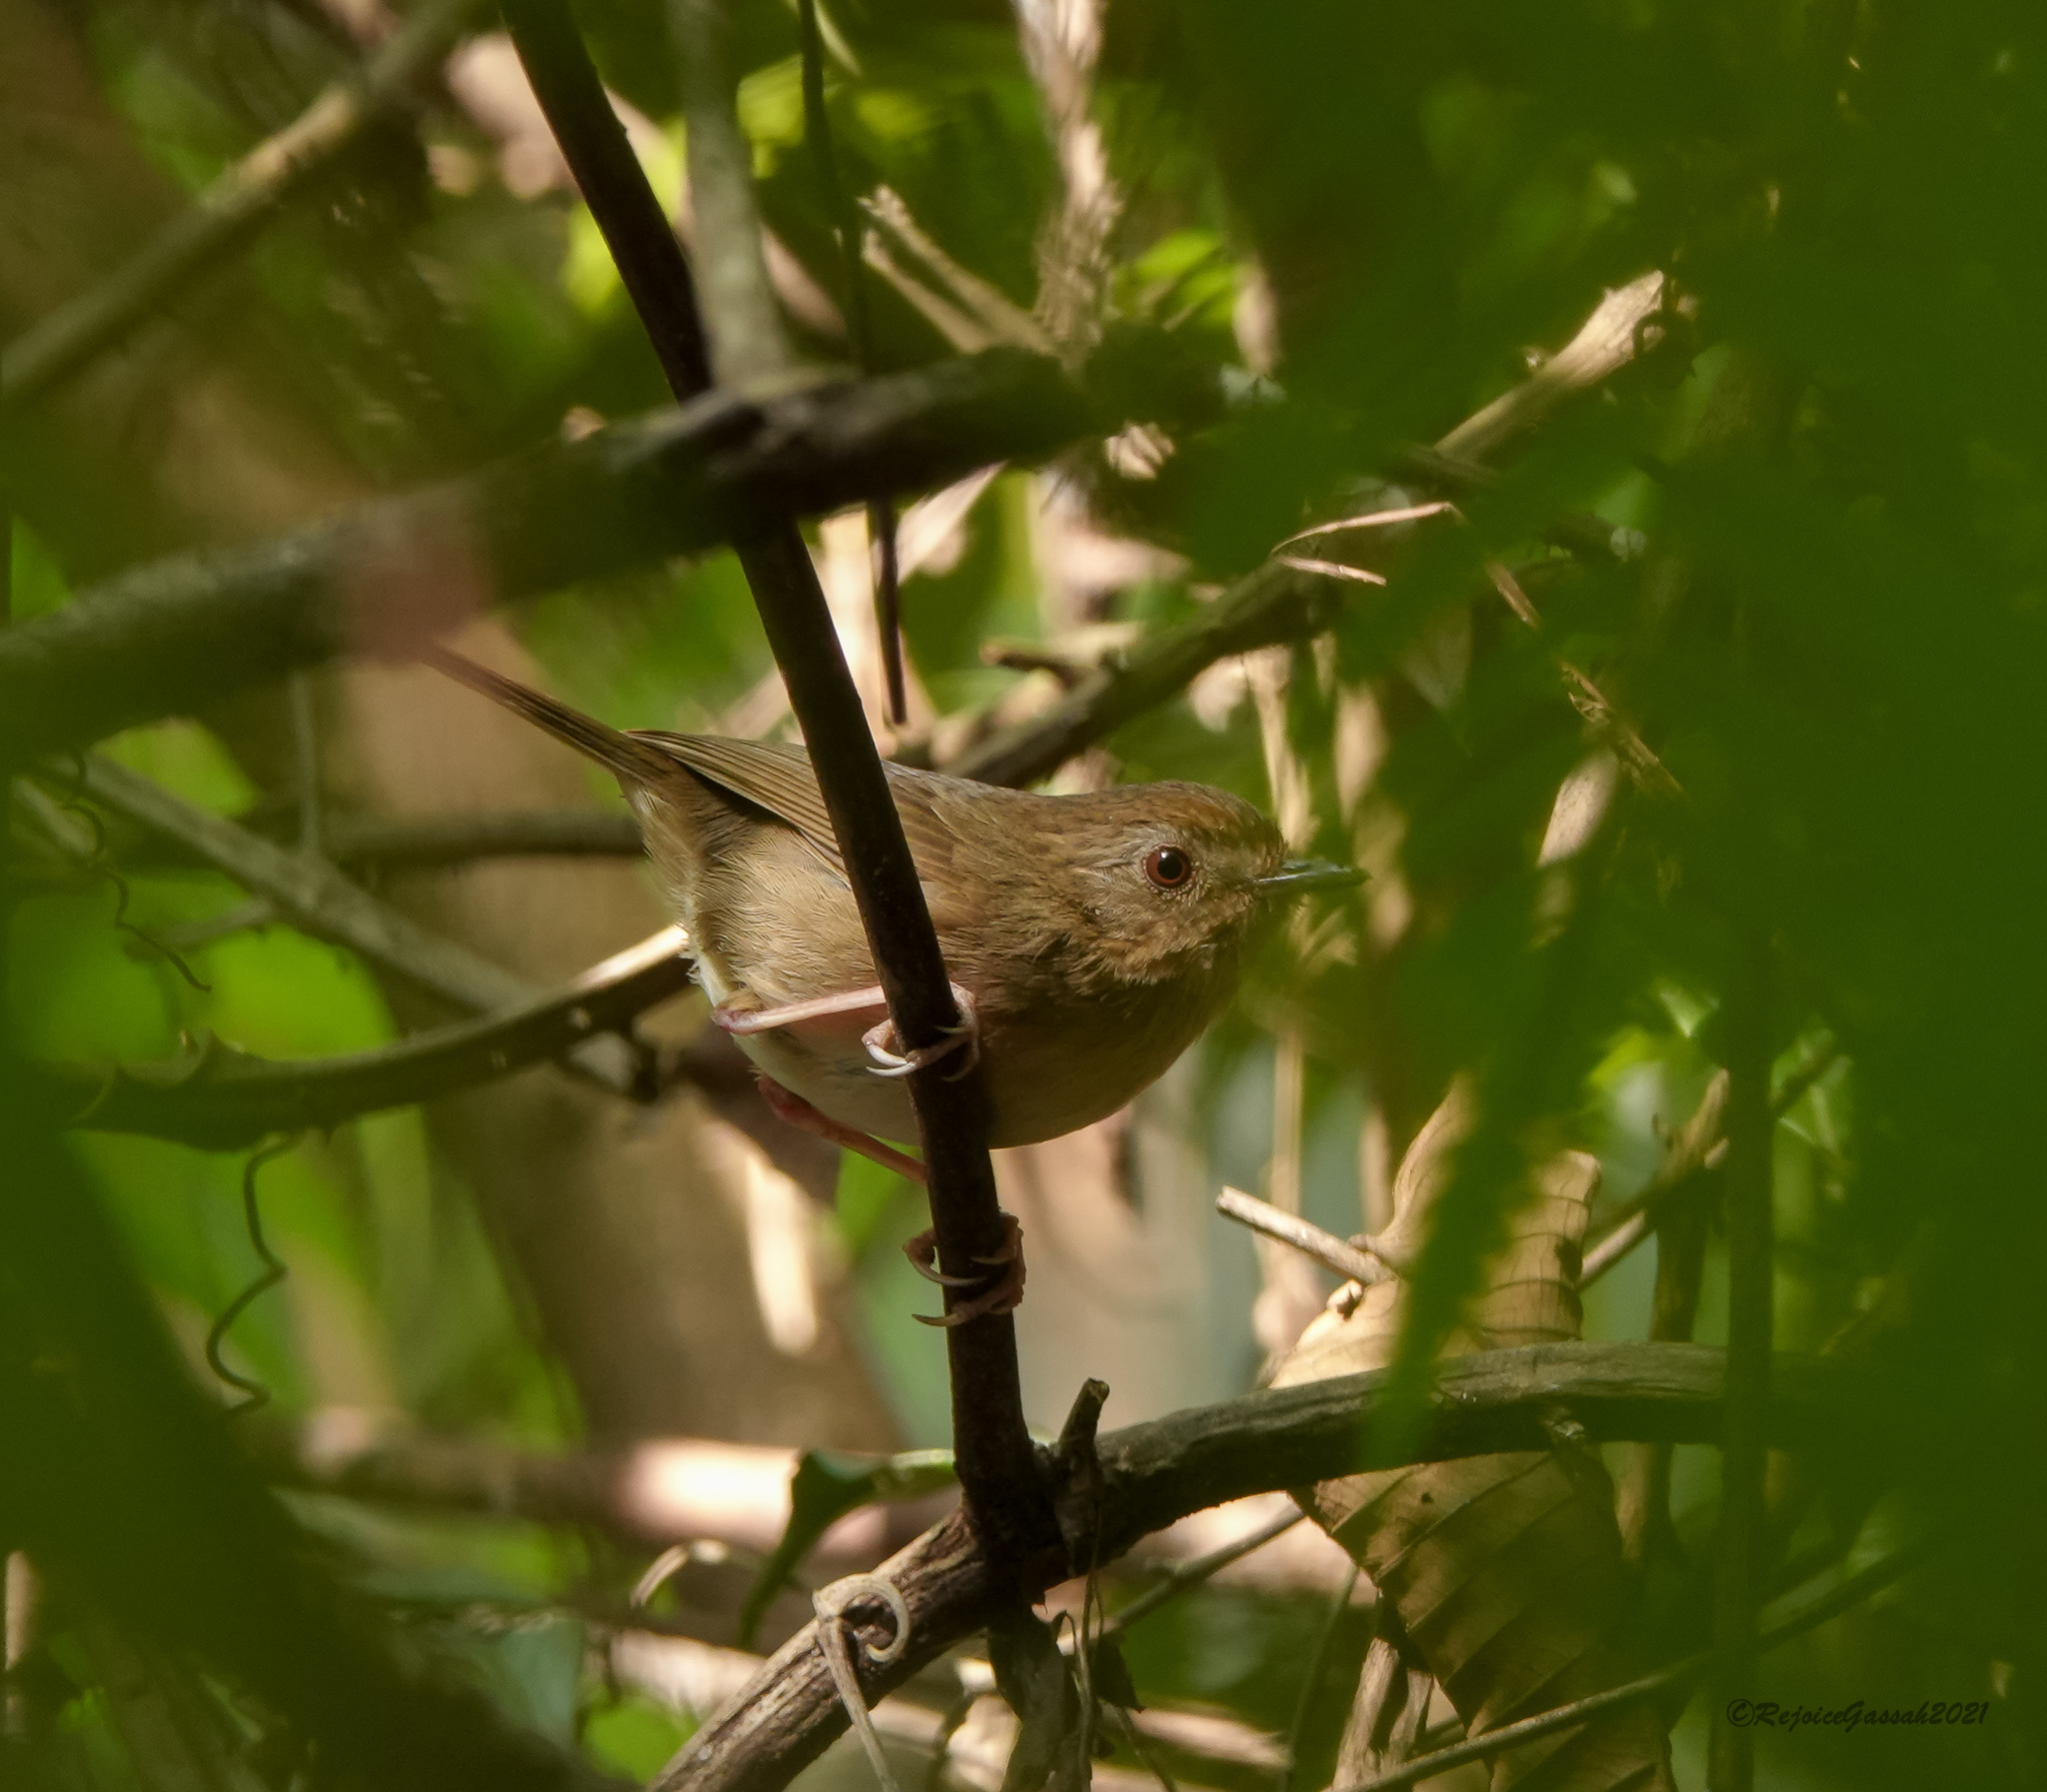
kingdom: Animalia
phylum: Chordata
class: Aves
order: Passeriformes
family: Pellorneidae
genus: Pellorneum
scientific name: Pellorneum tickelli
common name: Buff-breasted babbler
